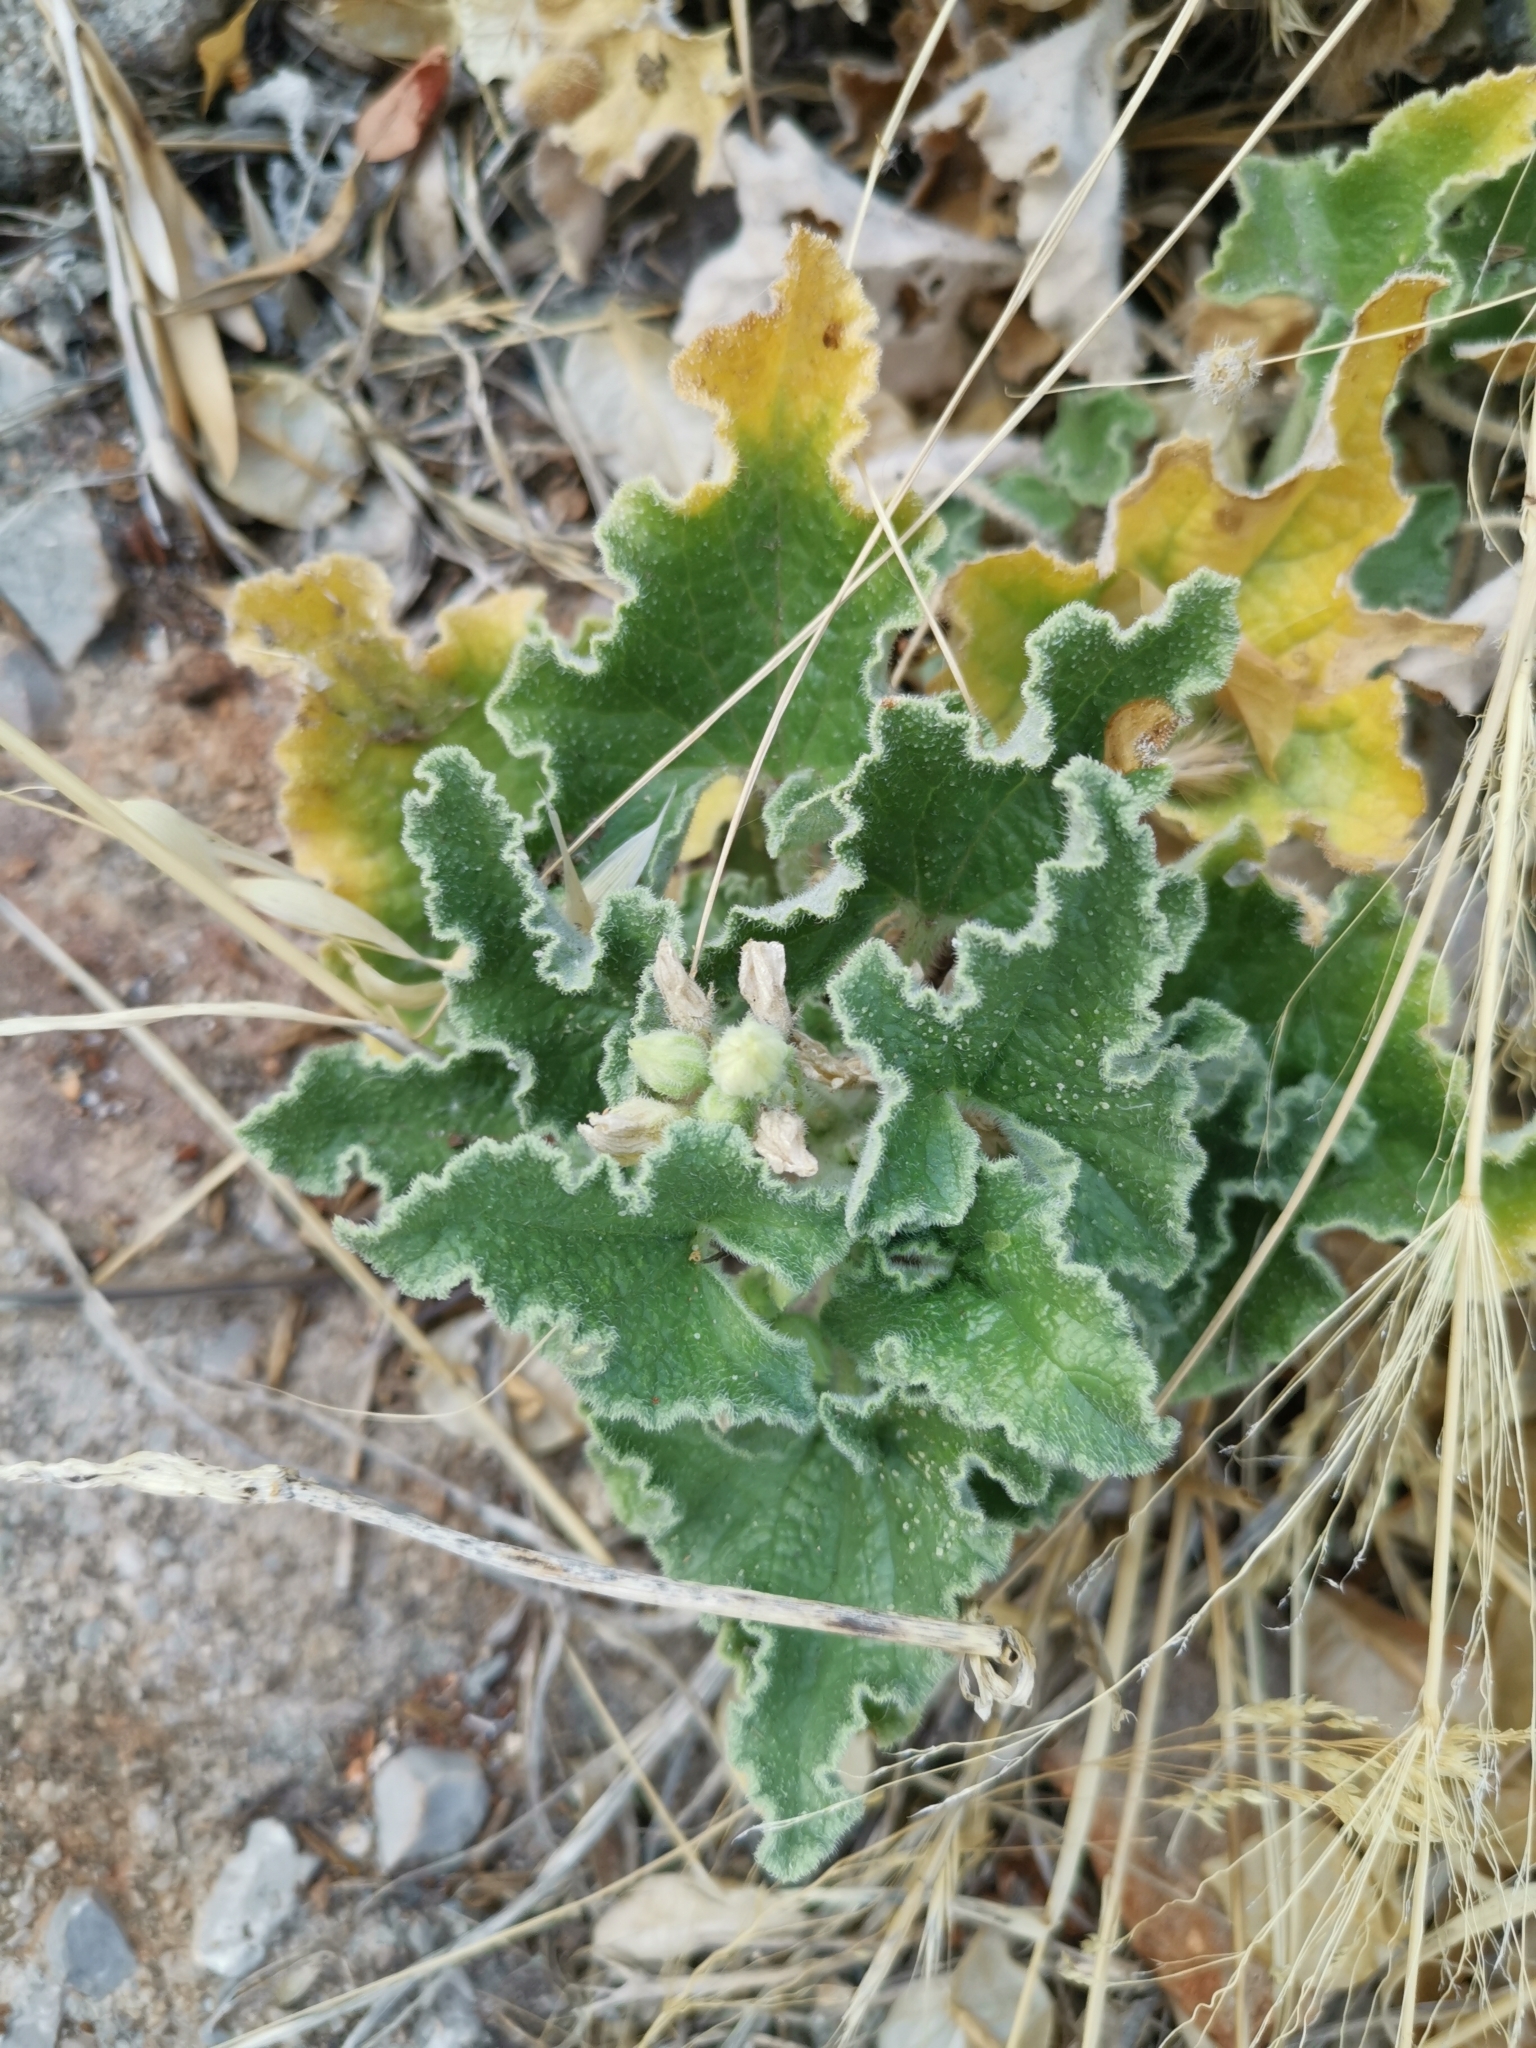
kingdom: Plantae
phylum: Tracheophyta
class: Magnoliopsida
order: Cucurbitales
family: Cucurbitaceae
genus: Ecballium
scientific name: Ecballium elaterium
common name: Squirting cucumber
